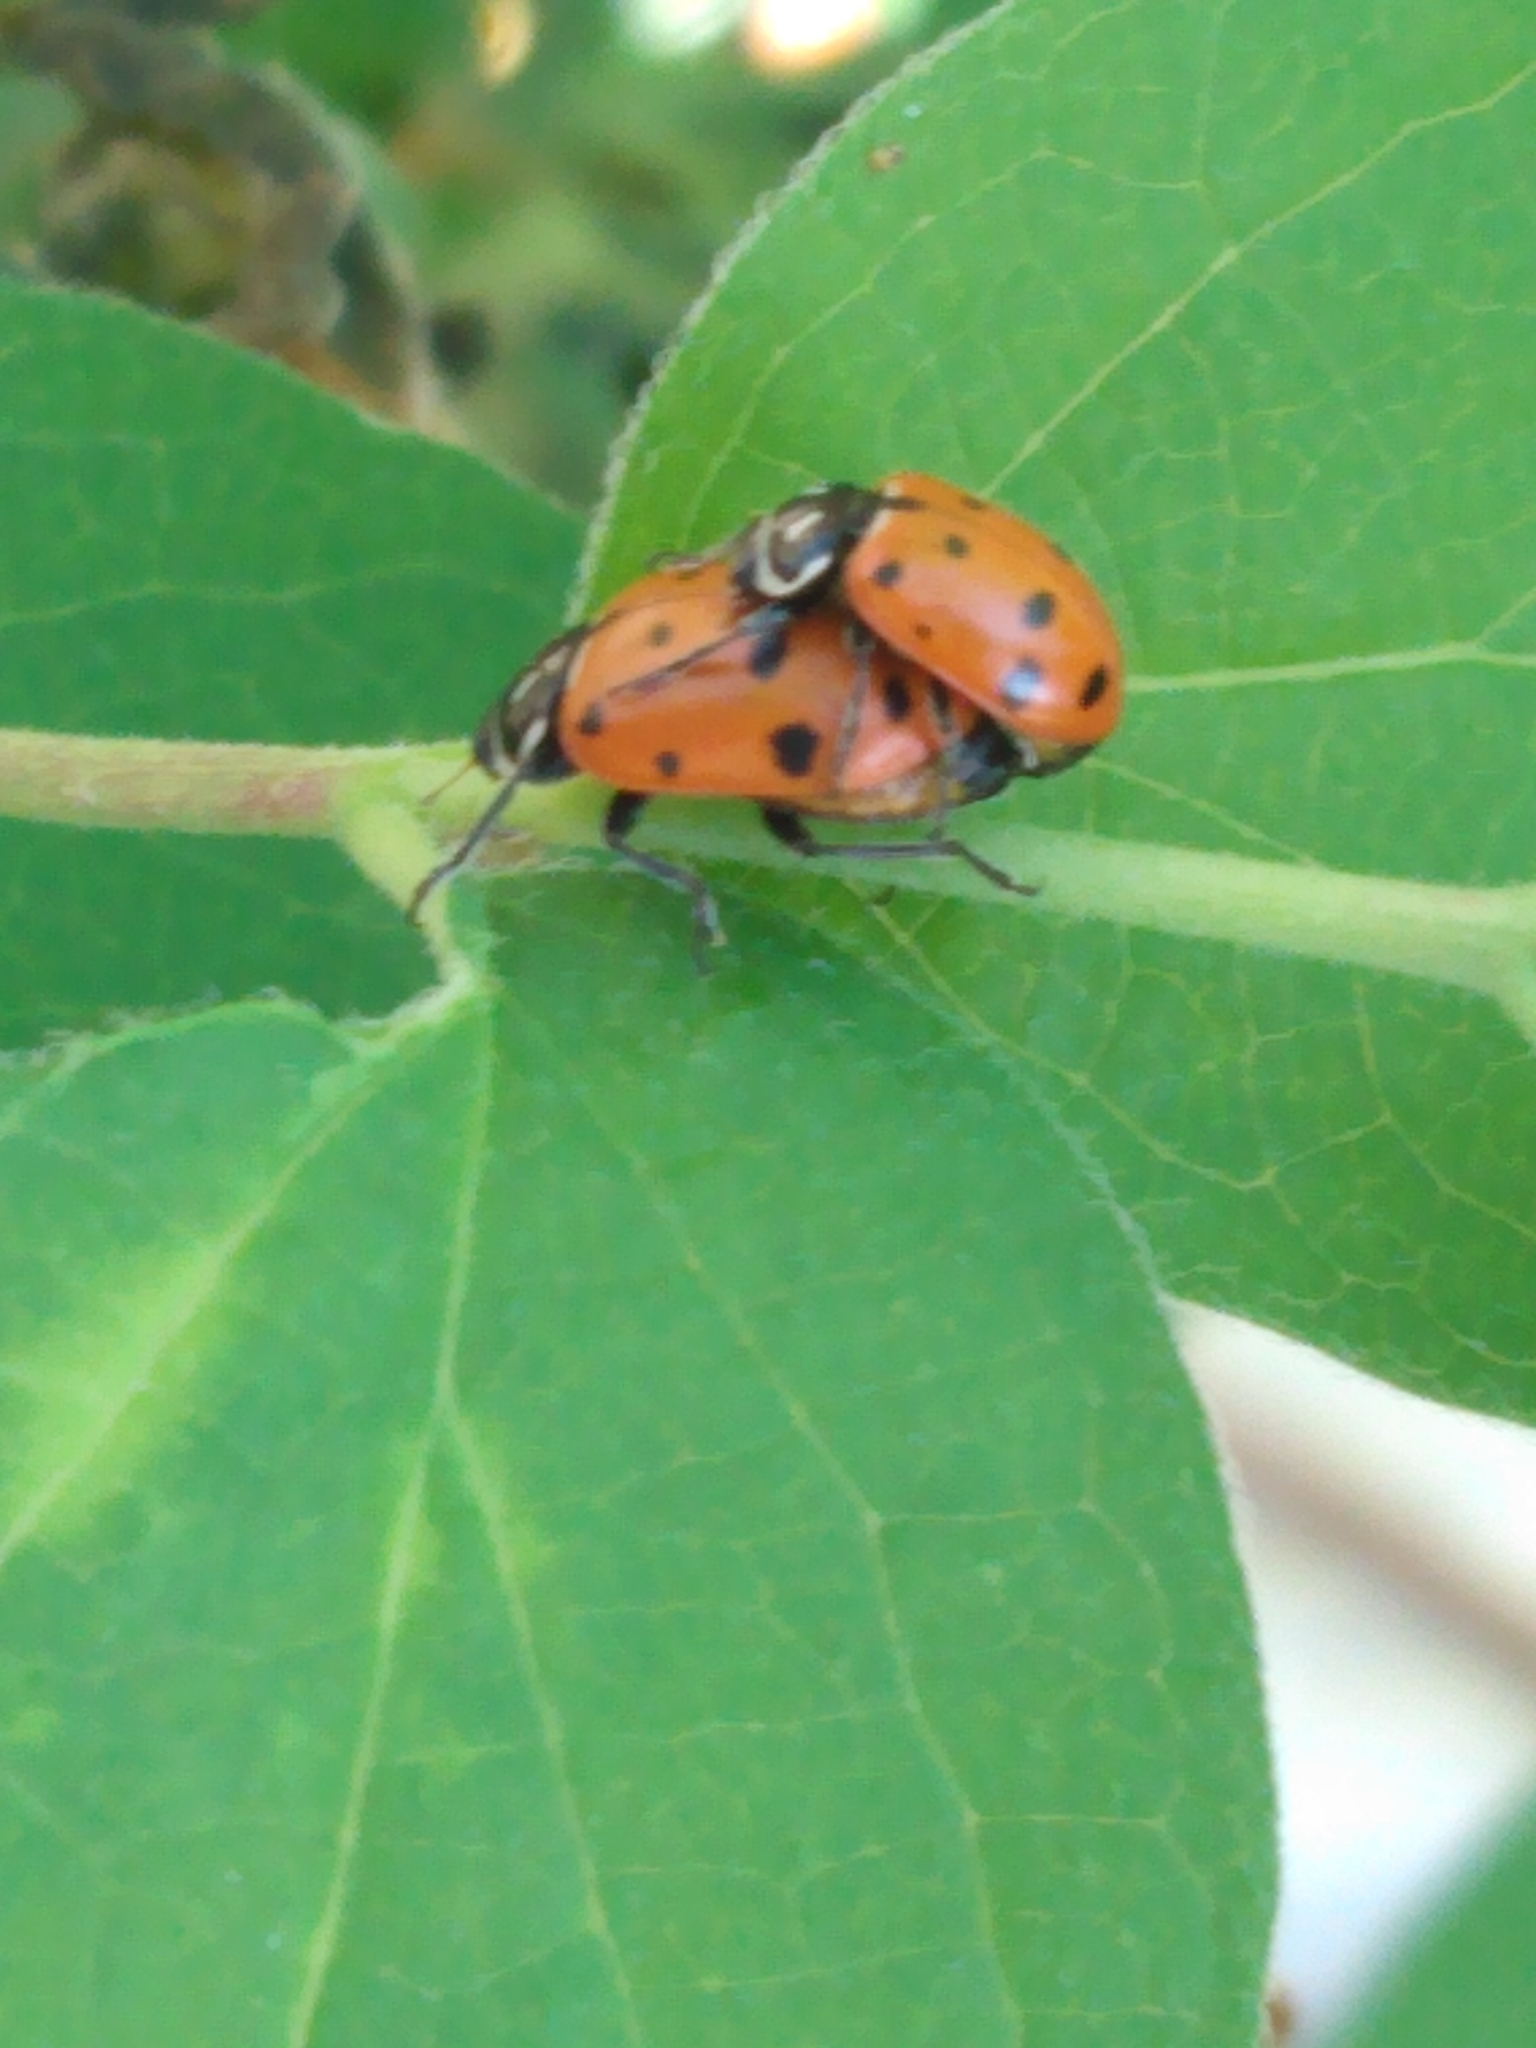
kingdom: Animalia
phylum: Arthropoda
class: Insecta
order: Coleoptera
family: Coccinellidae
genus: Hippodamia
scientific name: Hippodamia convergens
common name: Convergent lady beetle
